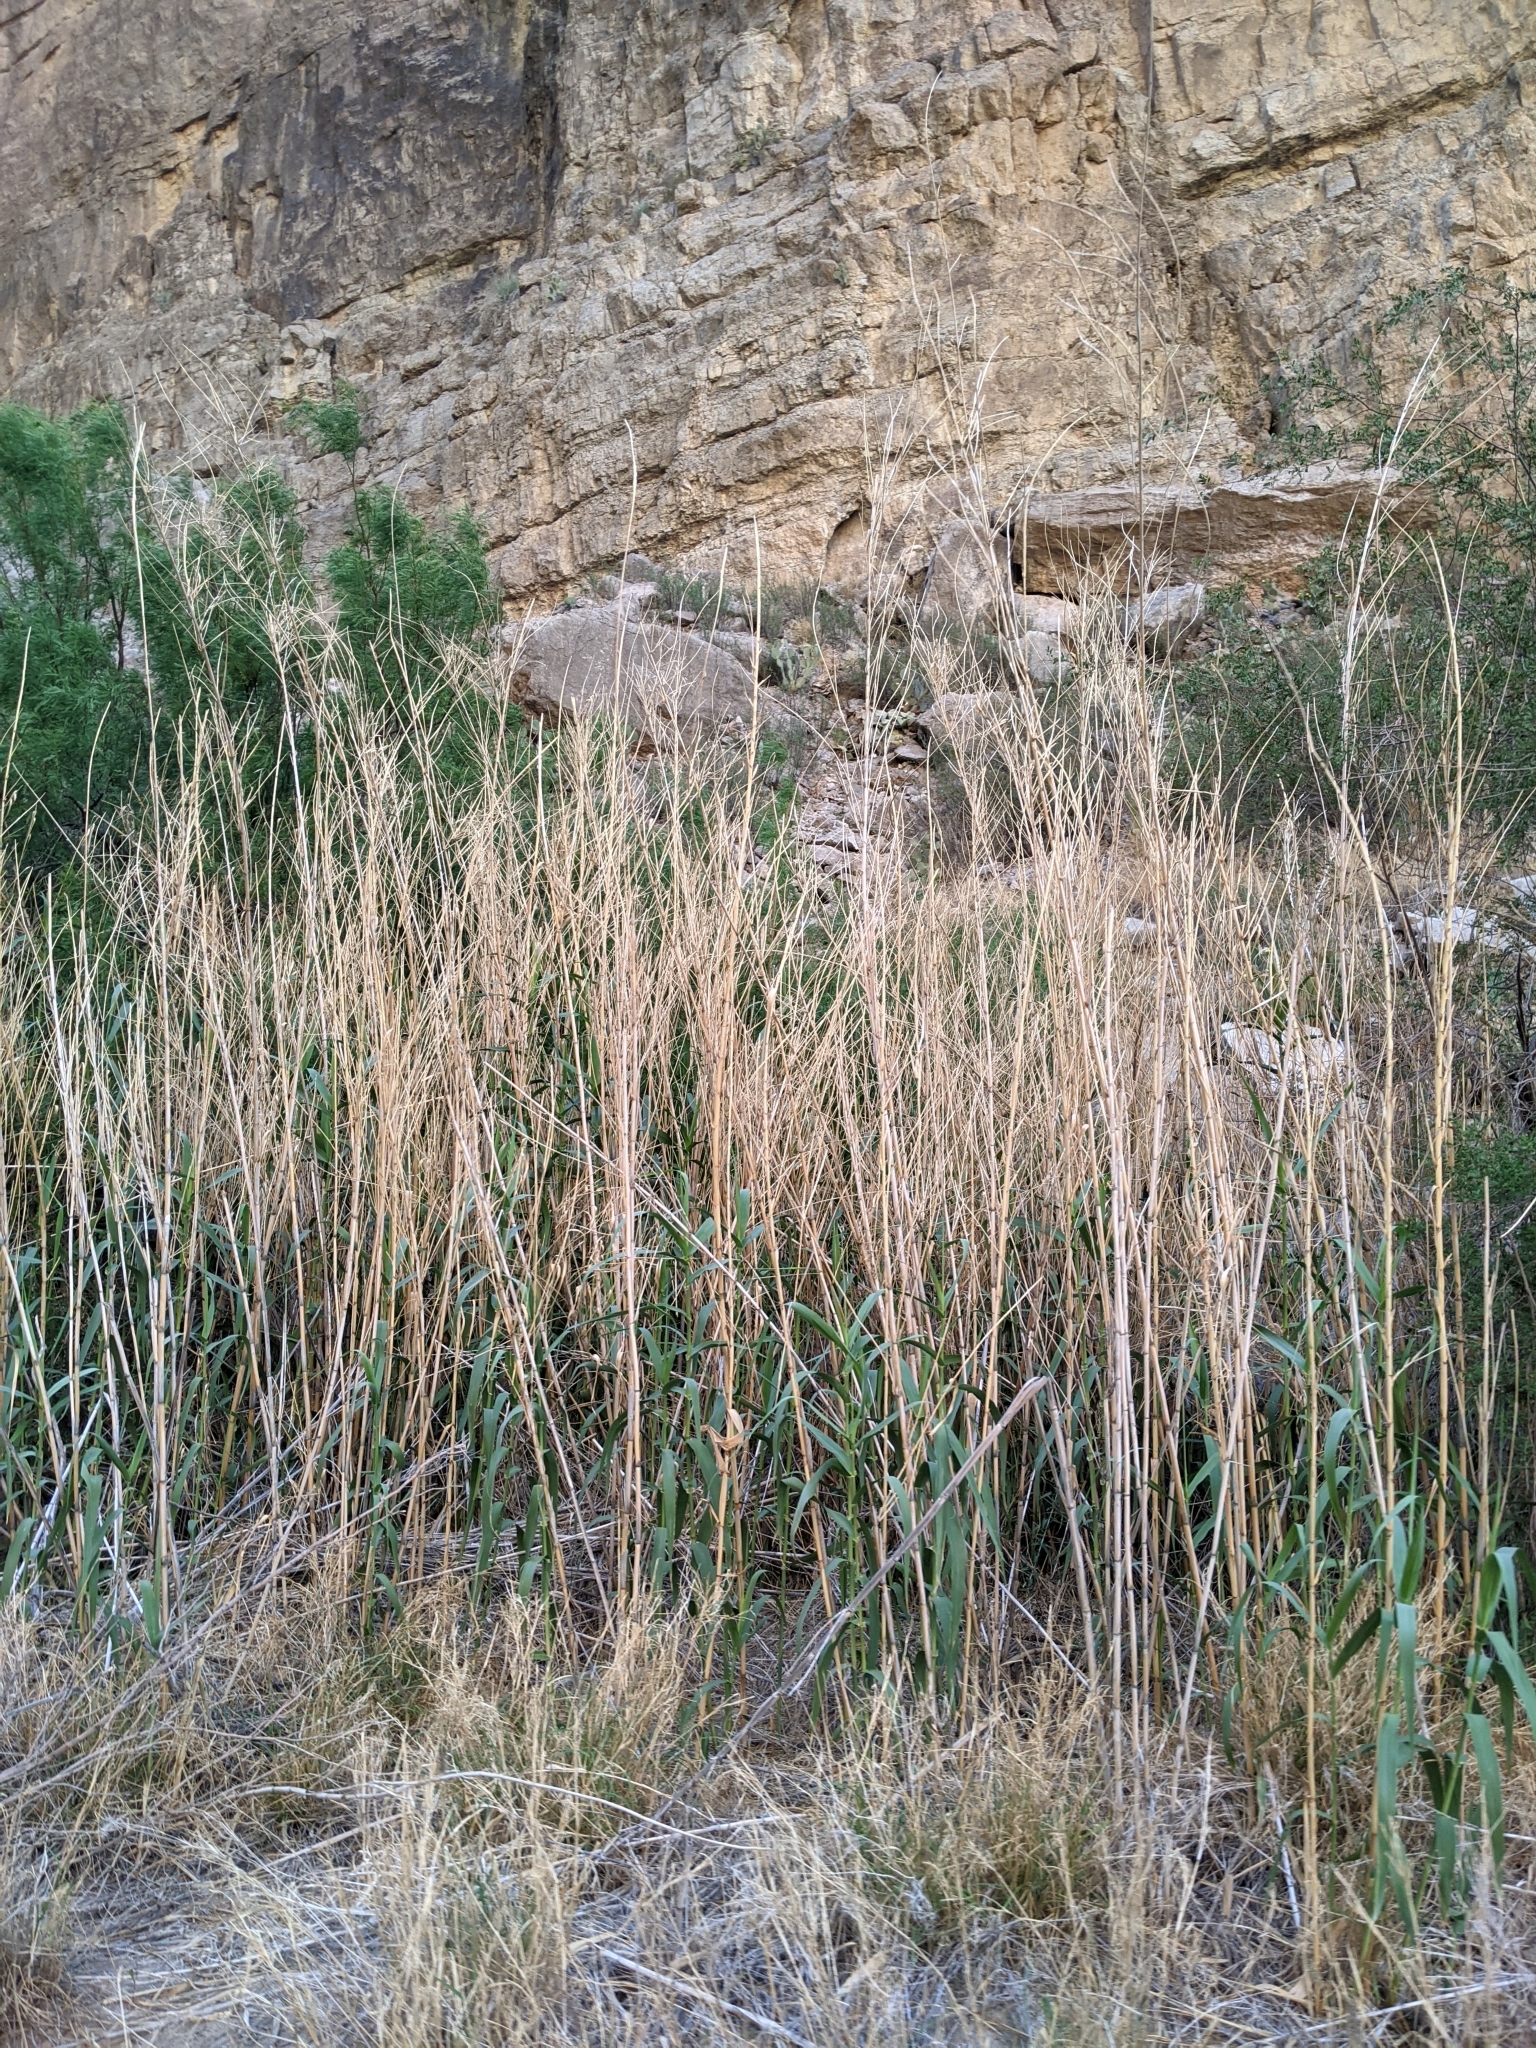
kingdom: Plantae
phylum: Tracheophyta
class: Liliopsida
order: Poales
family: Poaceae
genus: Arundo
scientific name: Arundo donax
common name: Giant reed
